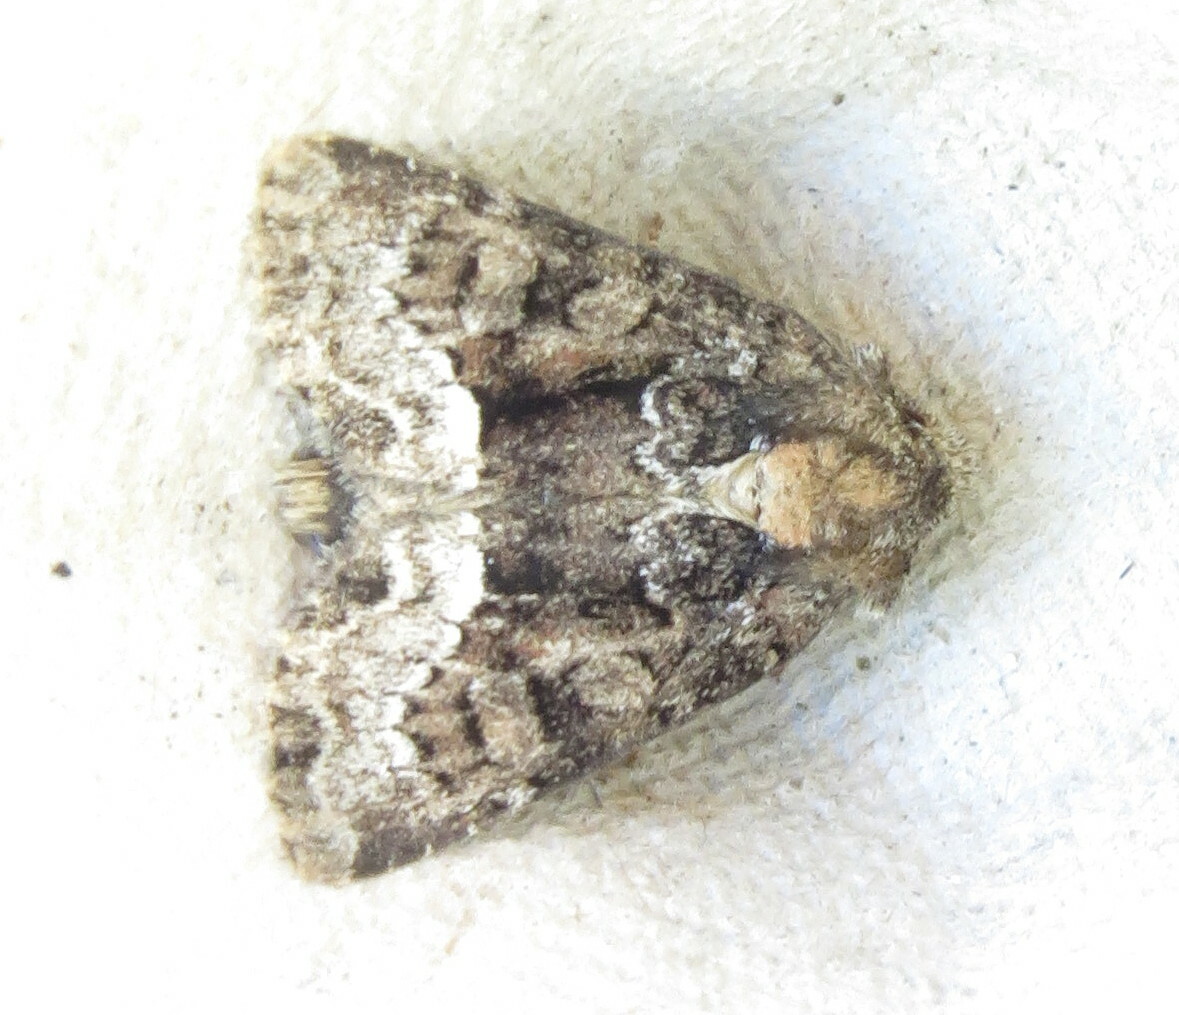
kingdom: Animalia
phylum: Arthropoda
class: Insecta
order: Lepidoptera
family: Noctuidae
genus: Oligia
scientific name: Oligia strigilis
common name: Marbled minor
